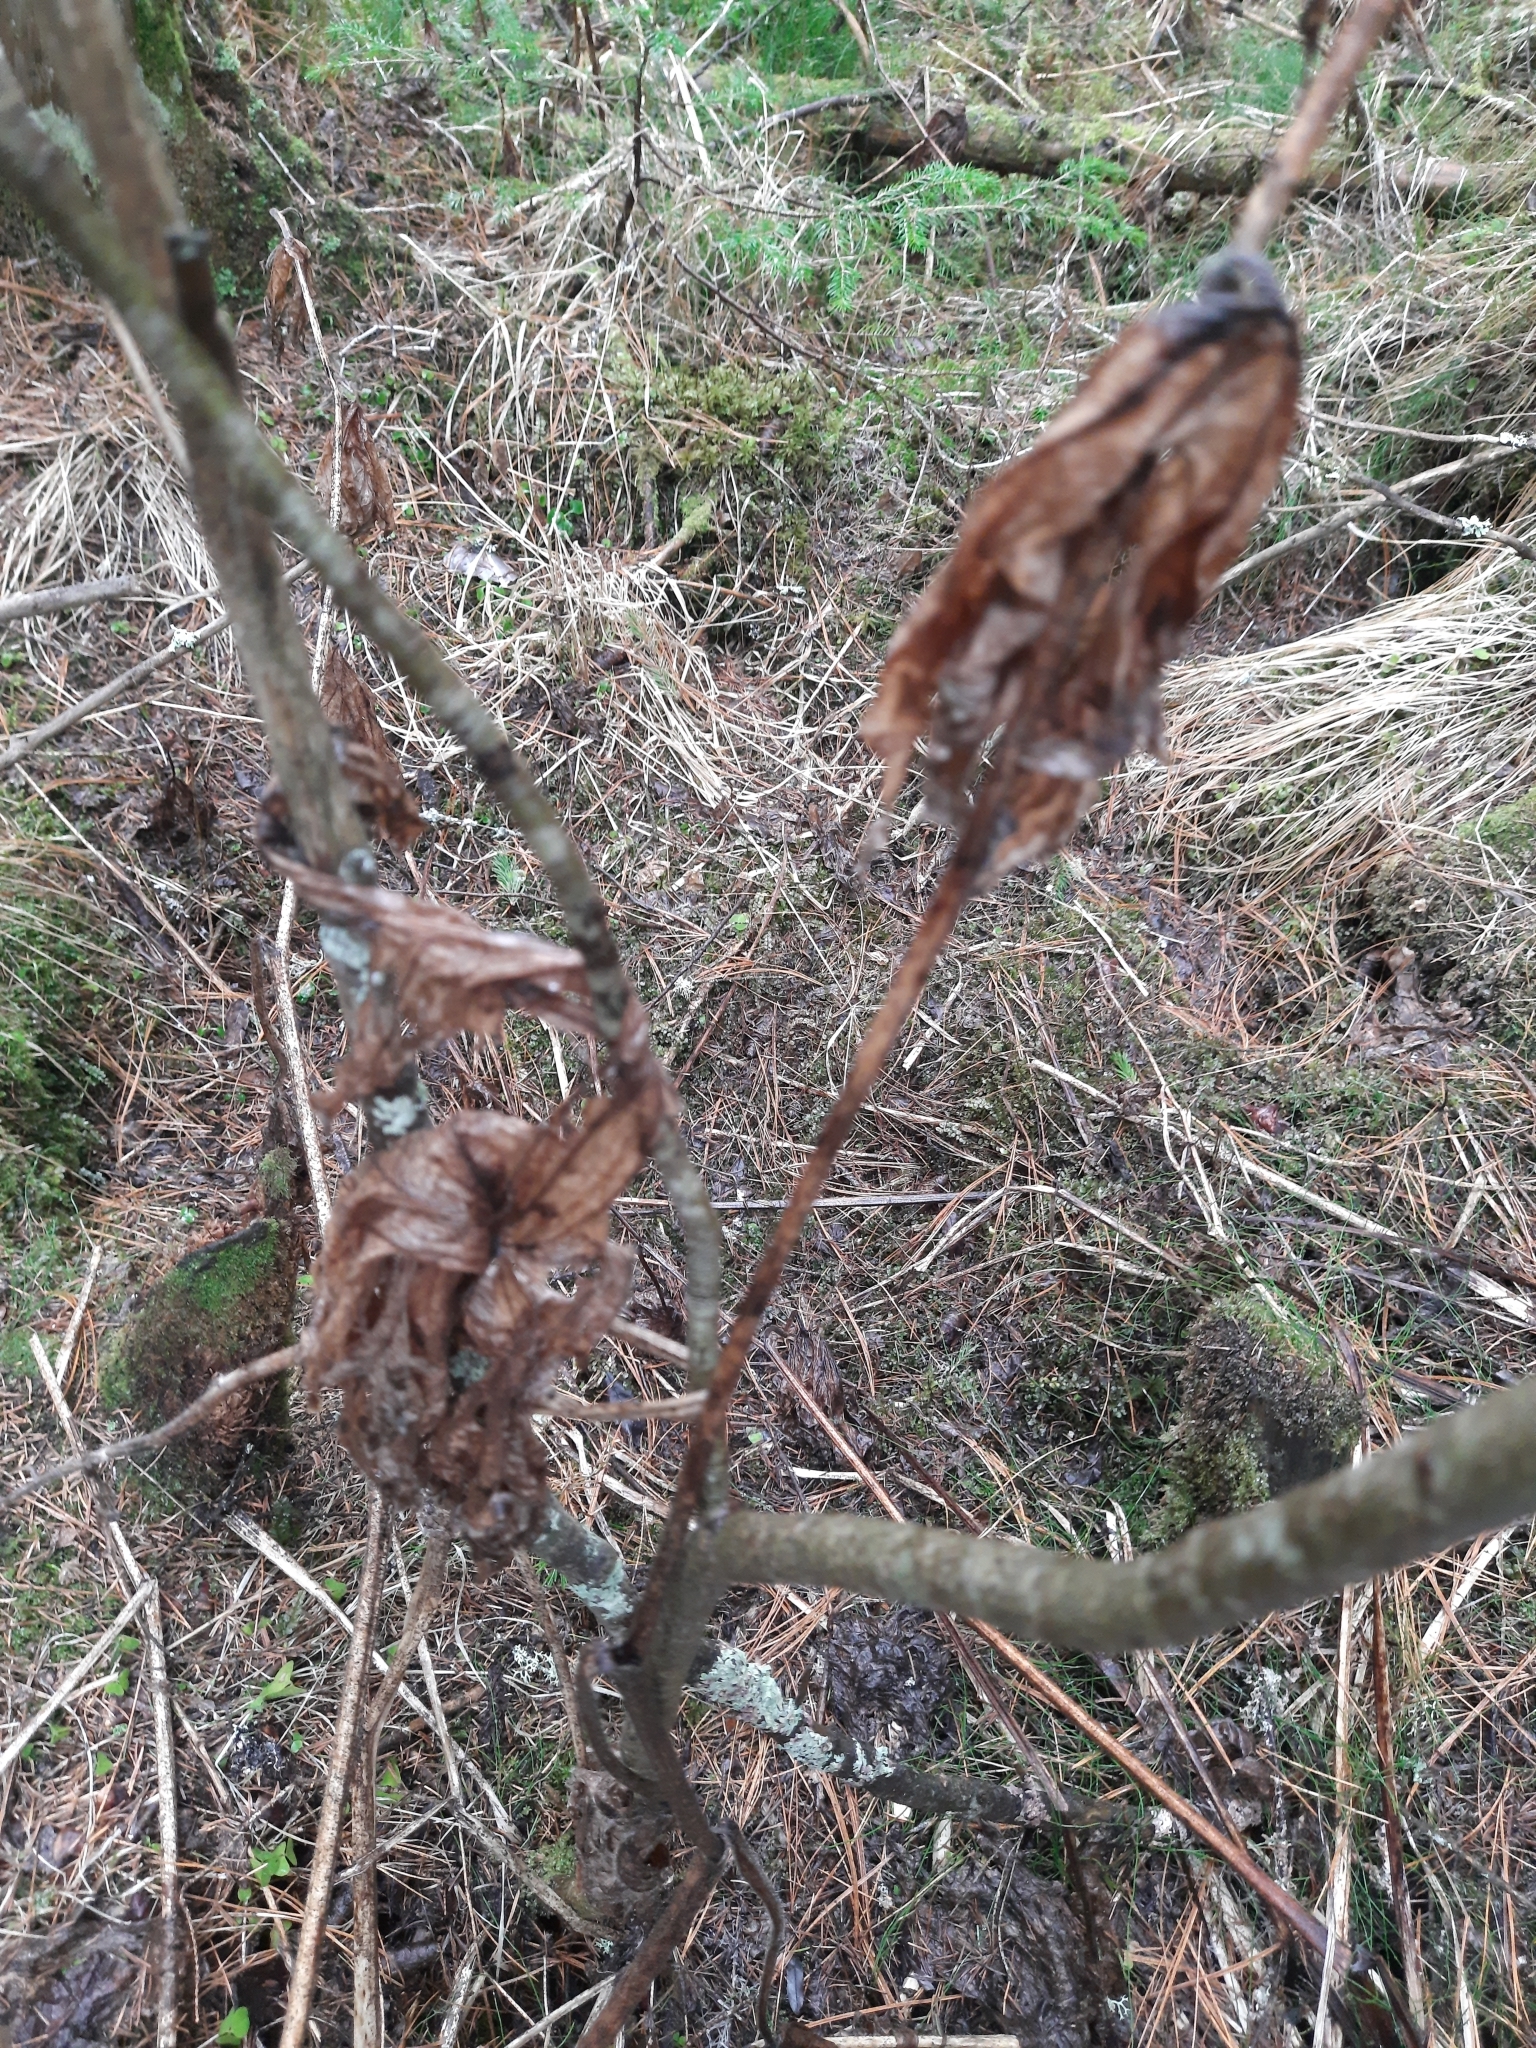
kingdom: Plantae
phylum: Tracheophyta
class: Magnoliopsida
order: Ranunculales
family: Ranunculaceae
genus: Aconitum
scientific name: Aconitum septentrionale
